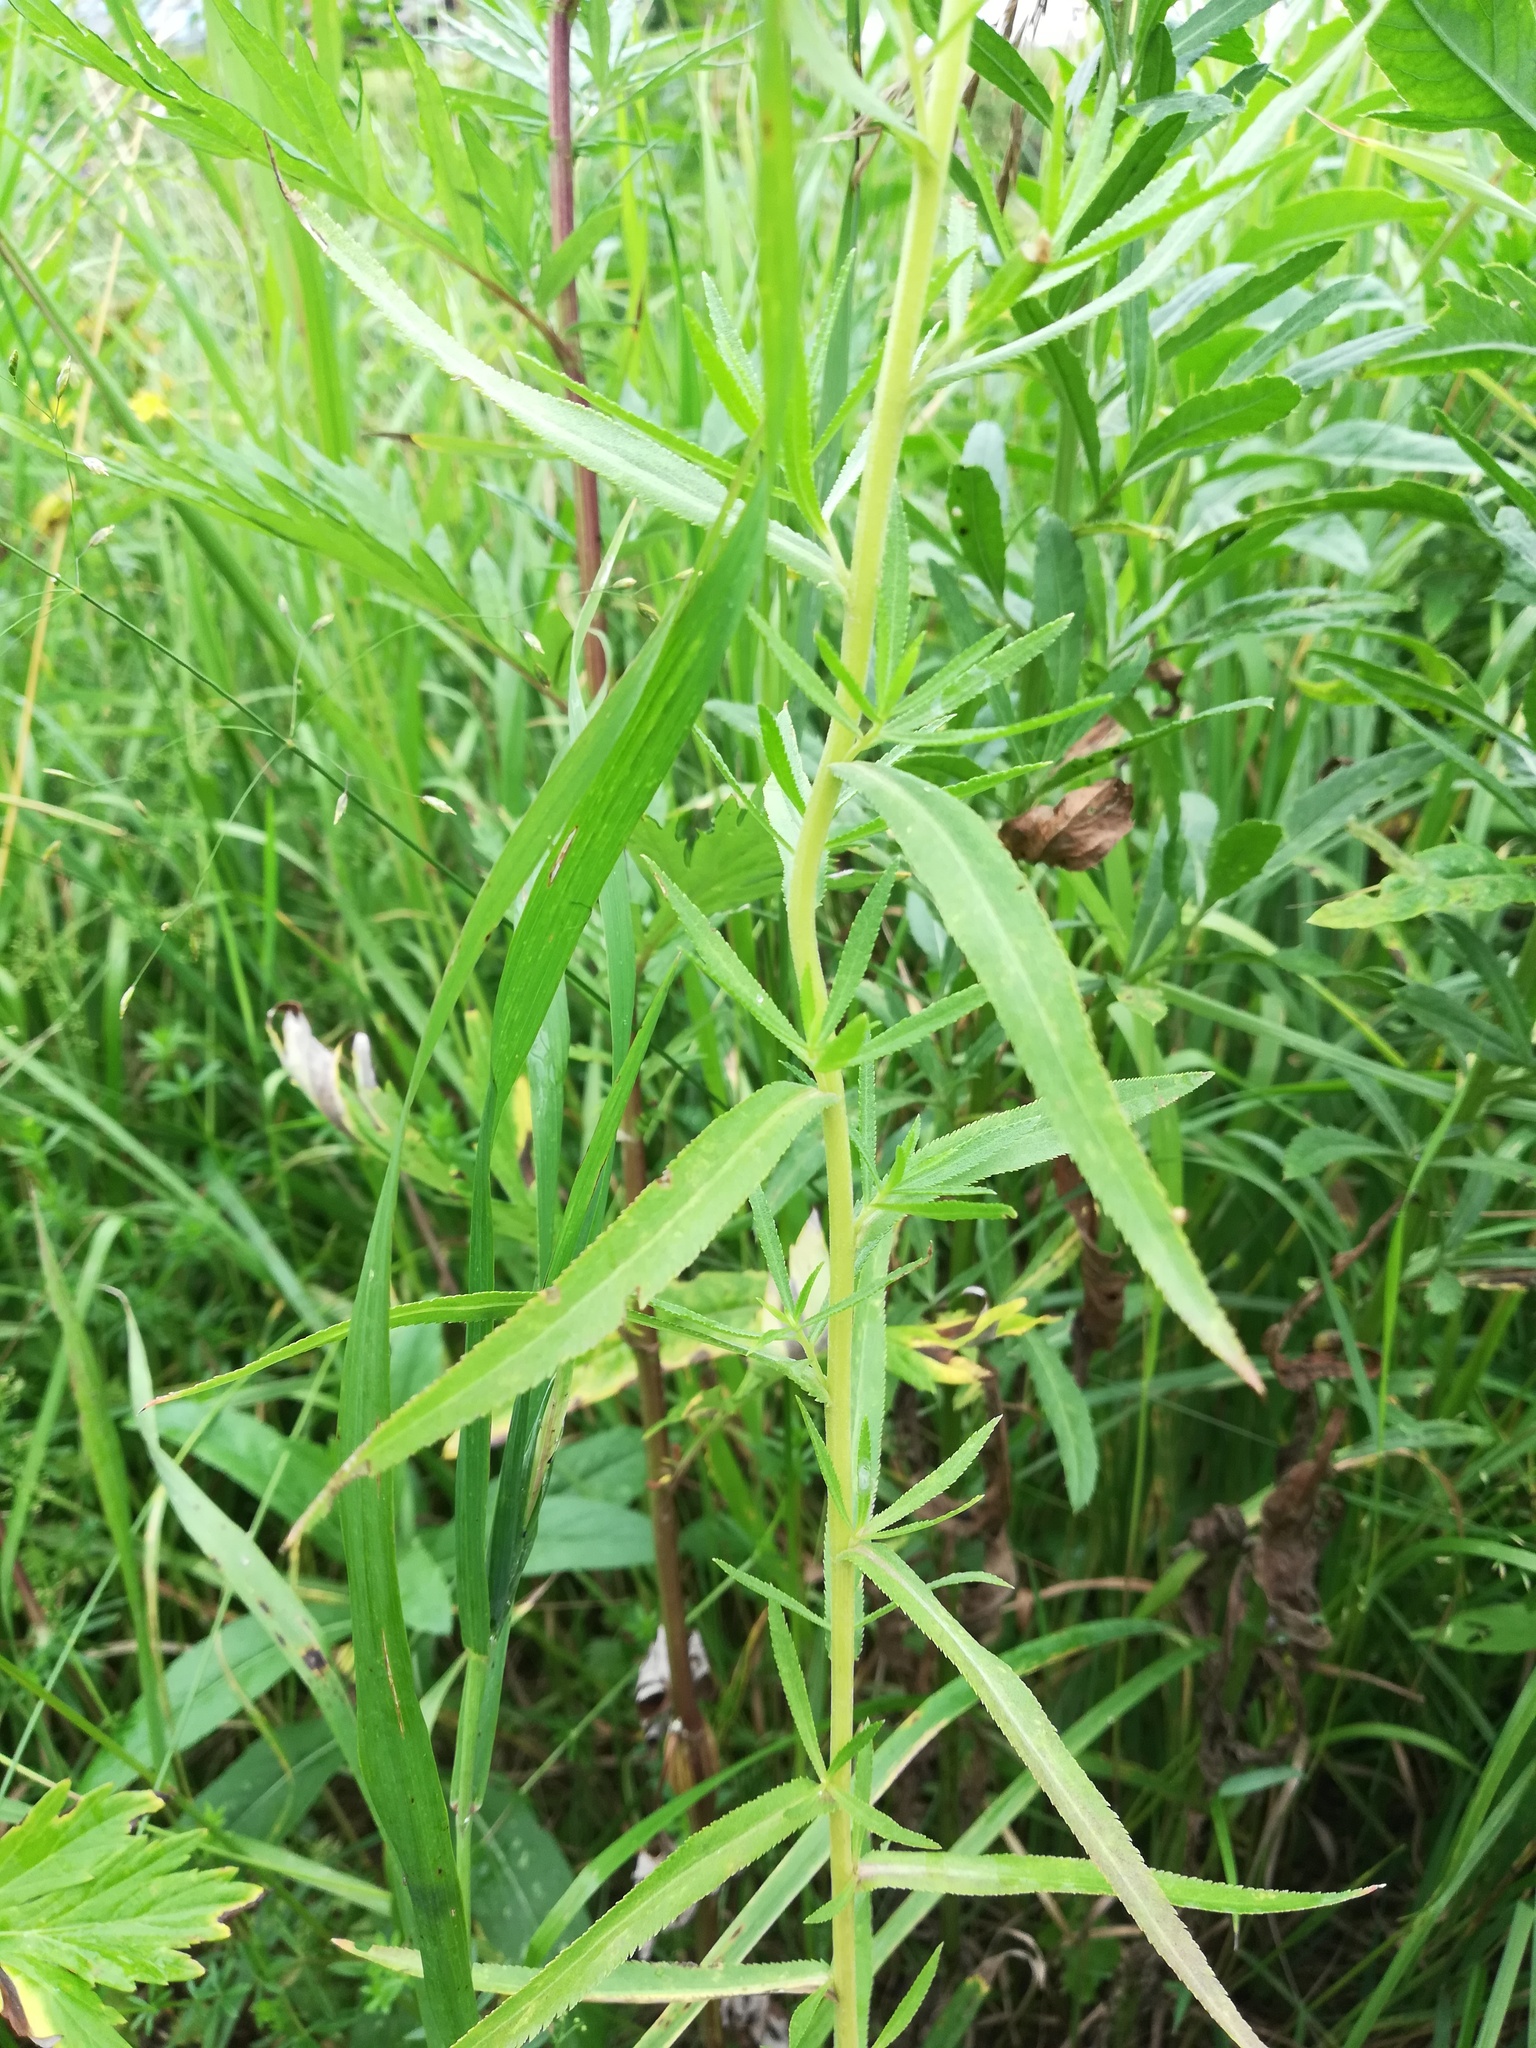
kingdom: Plantae
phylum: Tracheophyta
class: Magnoliopsida
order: Asterales
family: Asteraceae
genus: Achillea
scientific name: Achillea salicifolia
